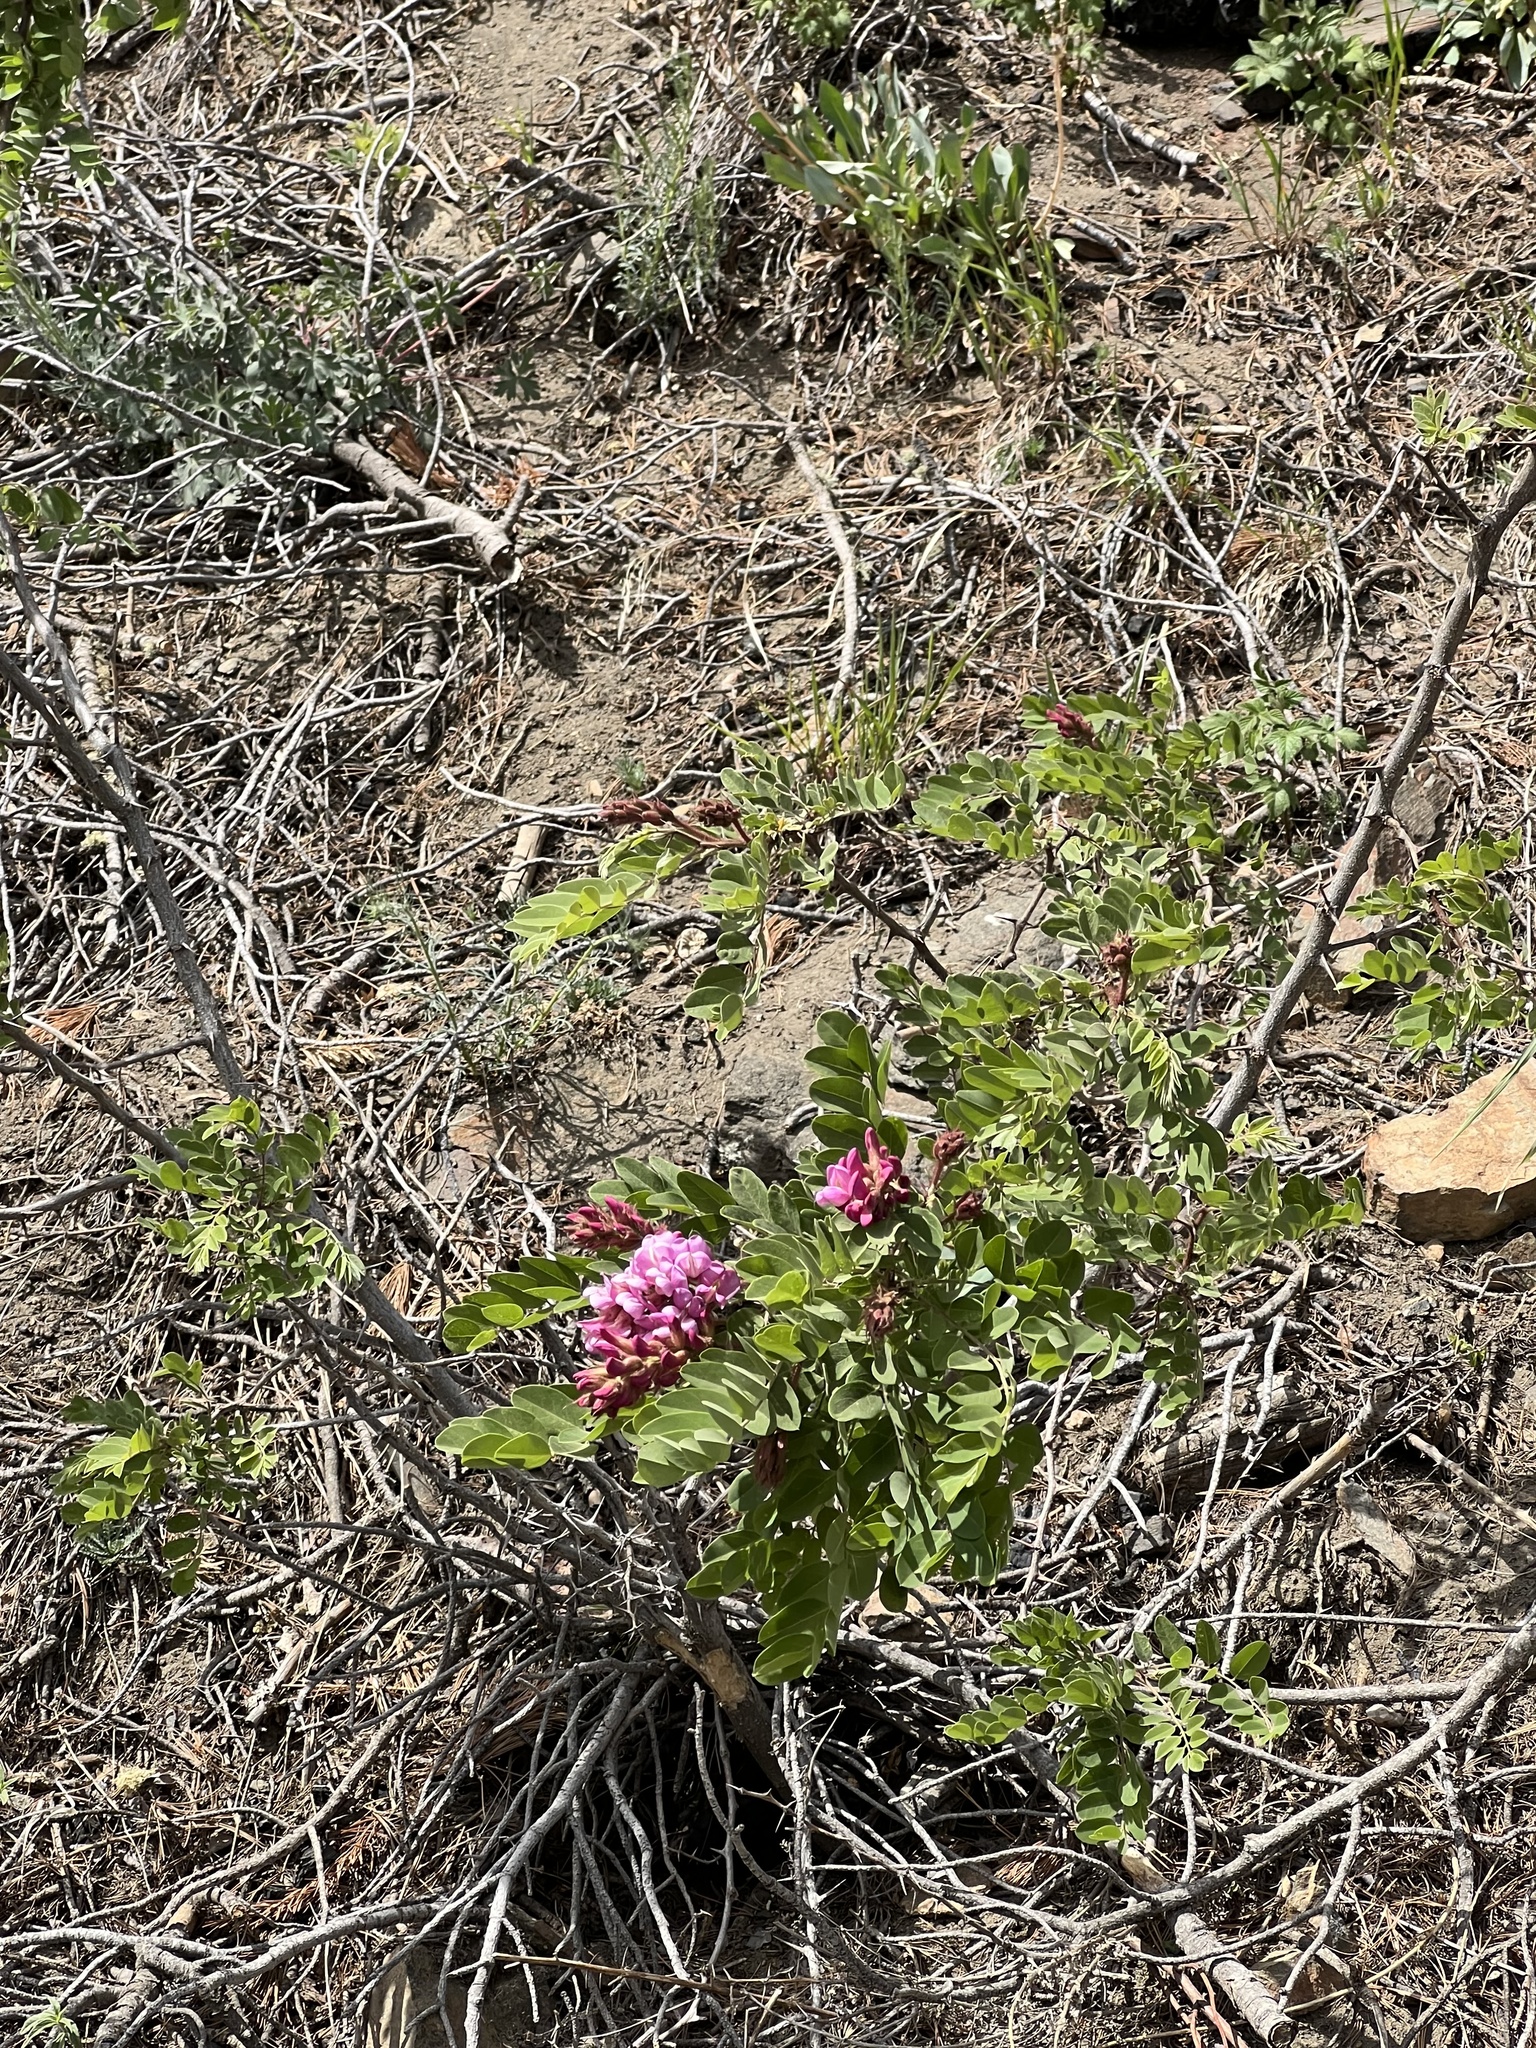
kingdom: Plantae
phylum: Tracheophyta
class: Magnoliopsida
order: Fabales
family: Fabaceae
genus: Robinia
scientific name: Robinia neomexicana
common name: New mexico locust
